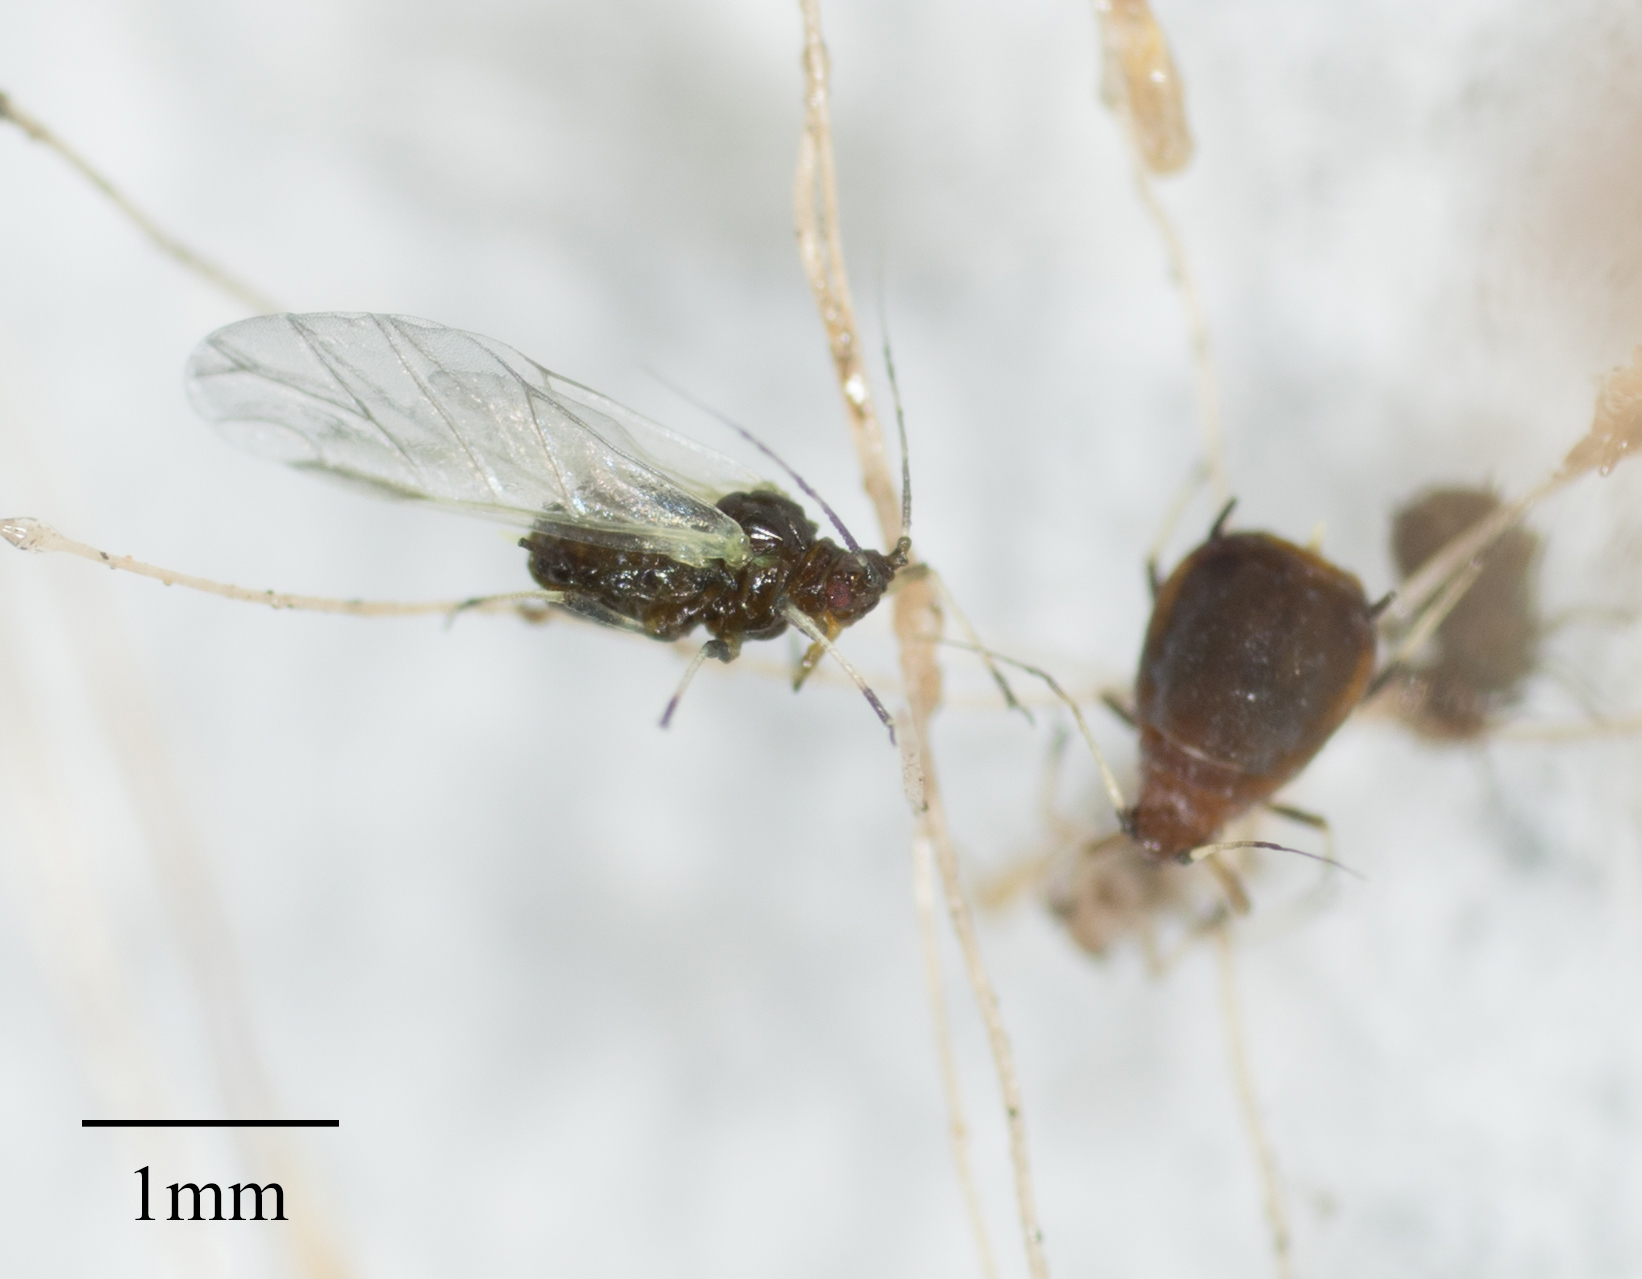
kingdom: Animalia
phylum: Arthropoda
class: Insecta
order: Hemiptera
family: Aphididae
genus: Hysteroneura
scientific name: Hysteroneura setariae
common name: Rusty plum aphid
